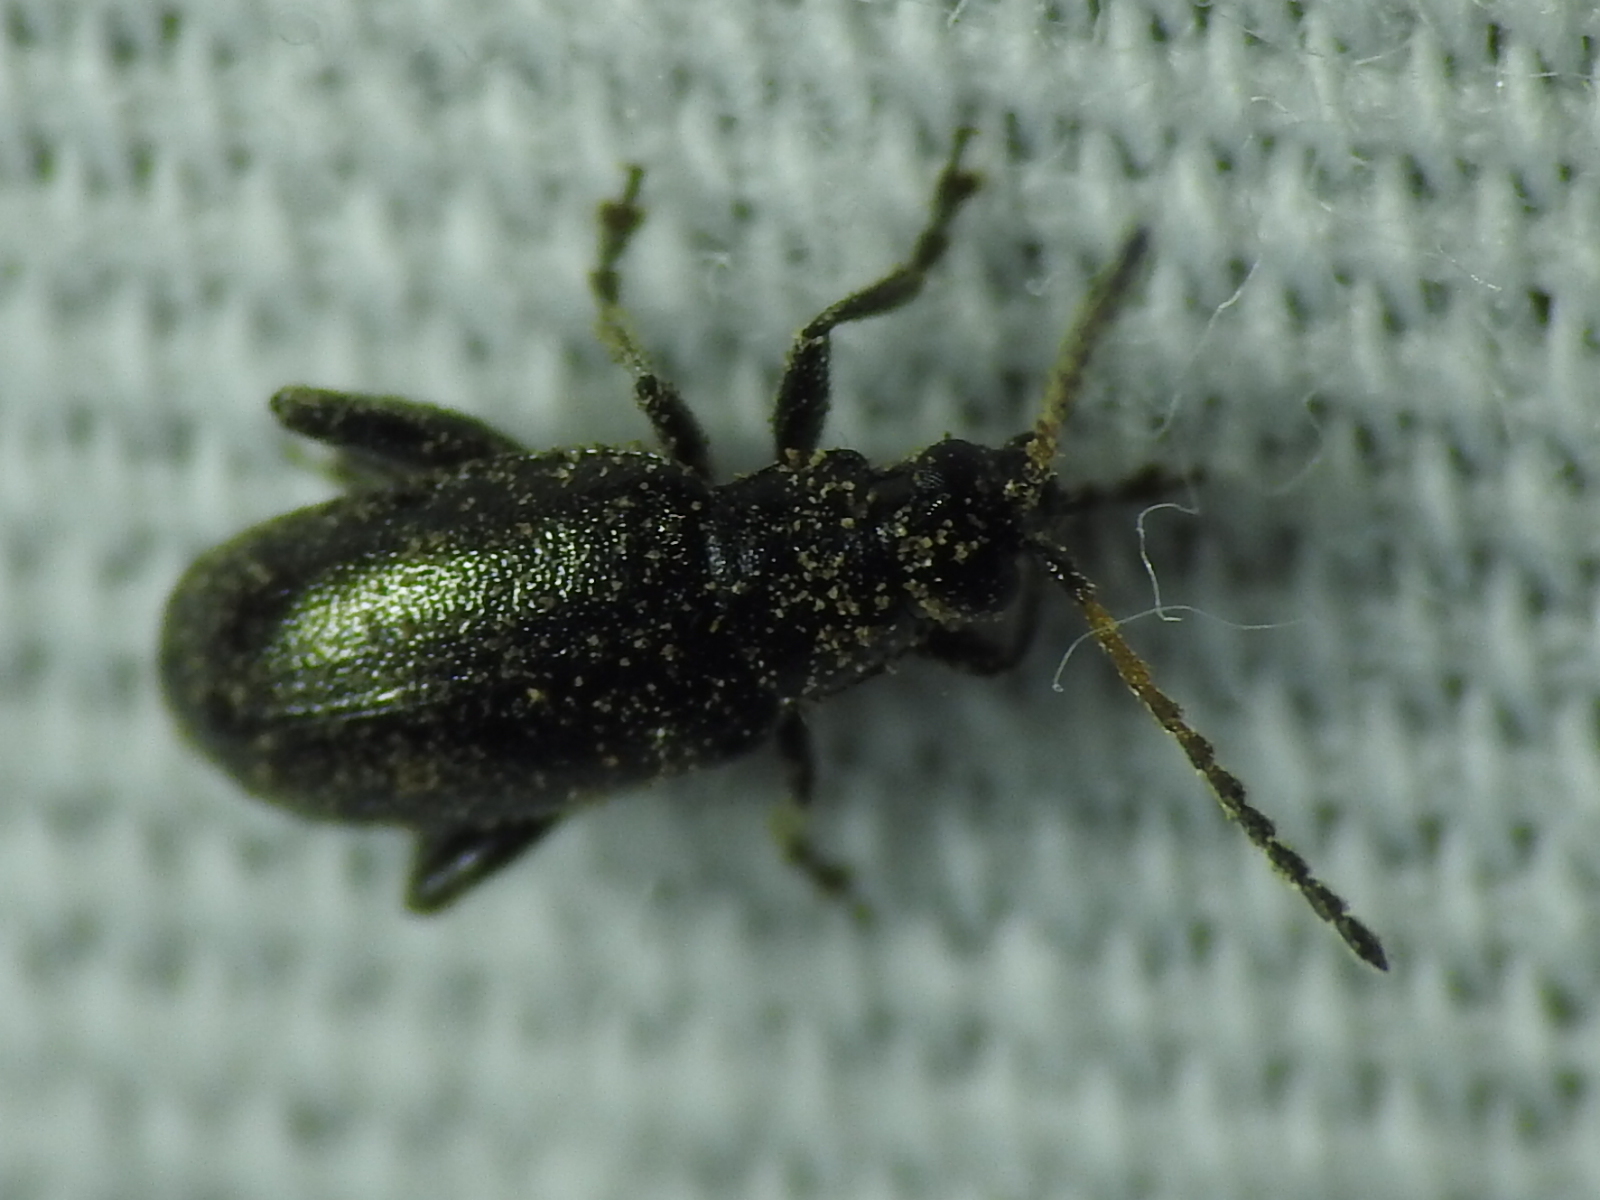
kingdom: Animalia
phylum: Arthropoda
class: Insecta
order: Coleoptera
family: Chrysomelidae
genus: Systena
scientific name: Systena hudsonias
